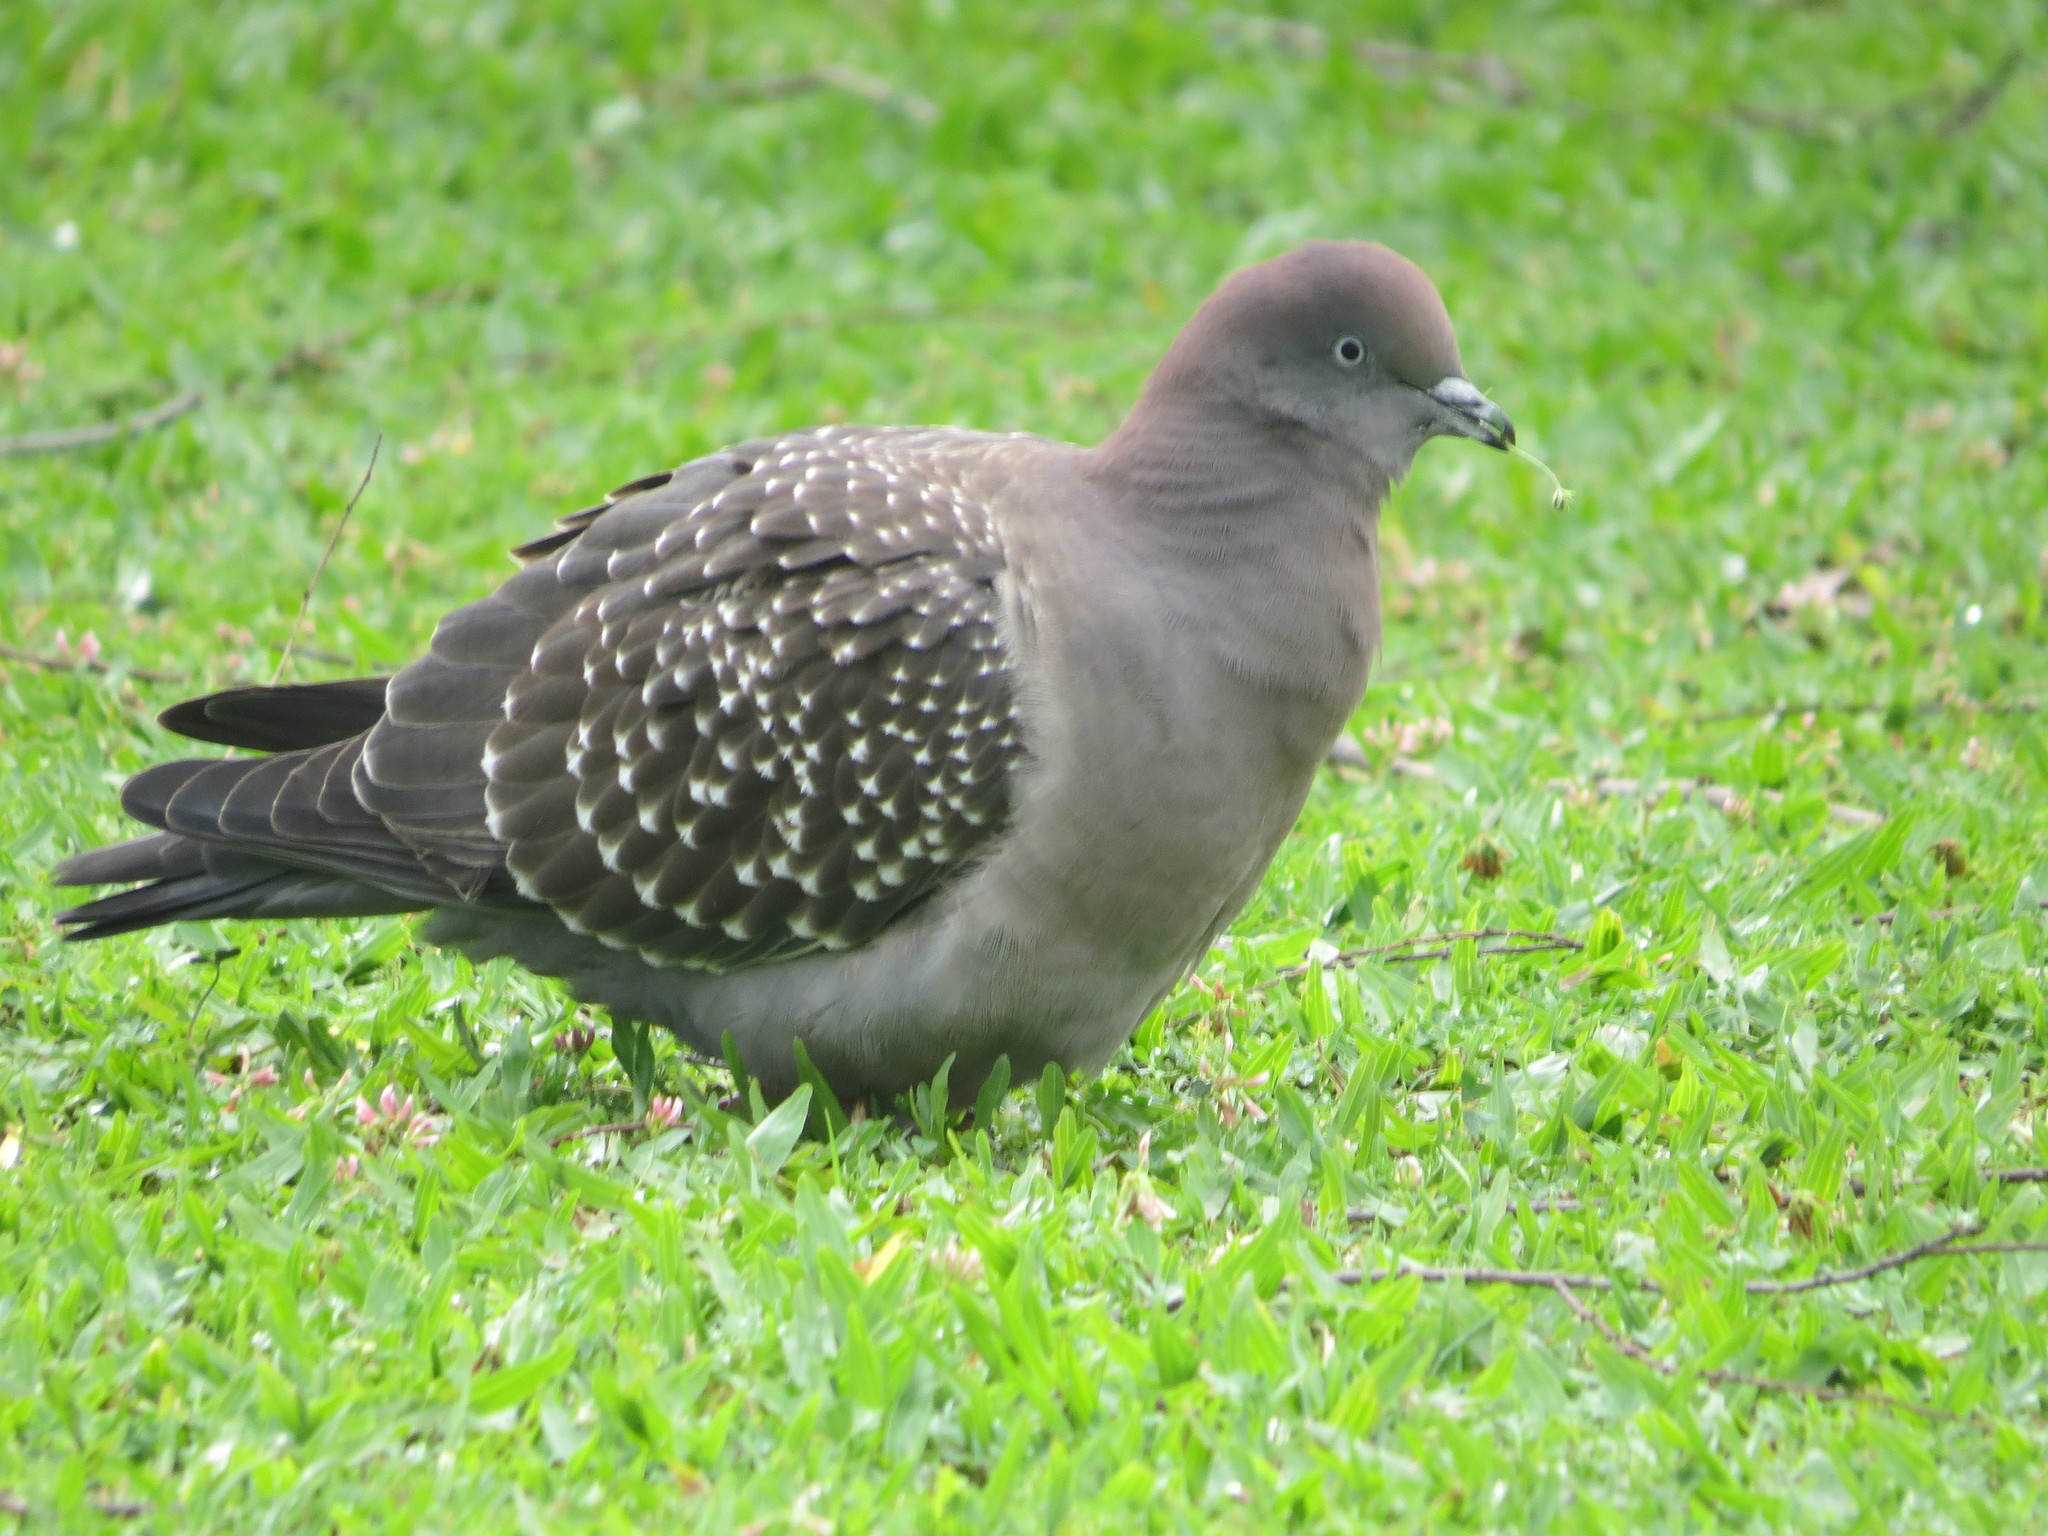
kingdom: Animalia
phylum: Chordata
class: Aves
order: Columbiformes
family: Columbidae
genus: Patagioenas
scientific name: Patagioenas maculosa
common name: Spot-winged pigeon
